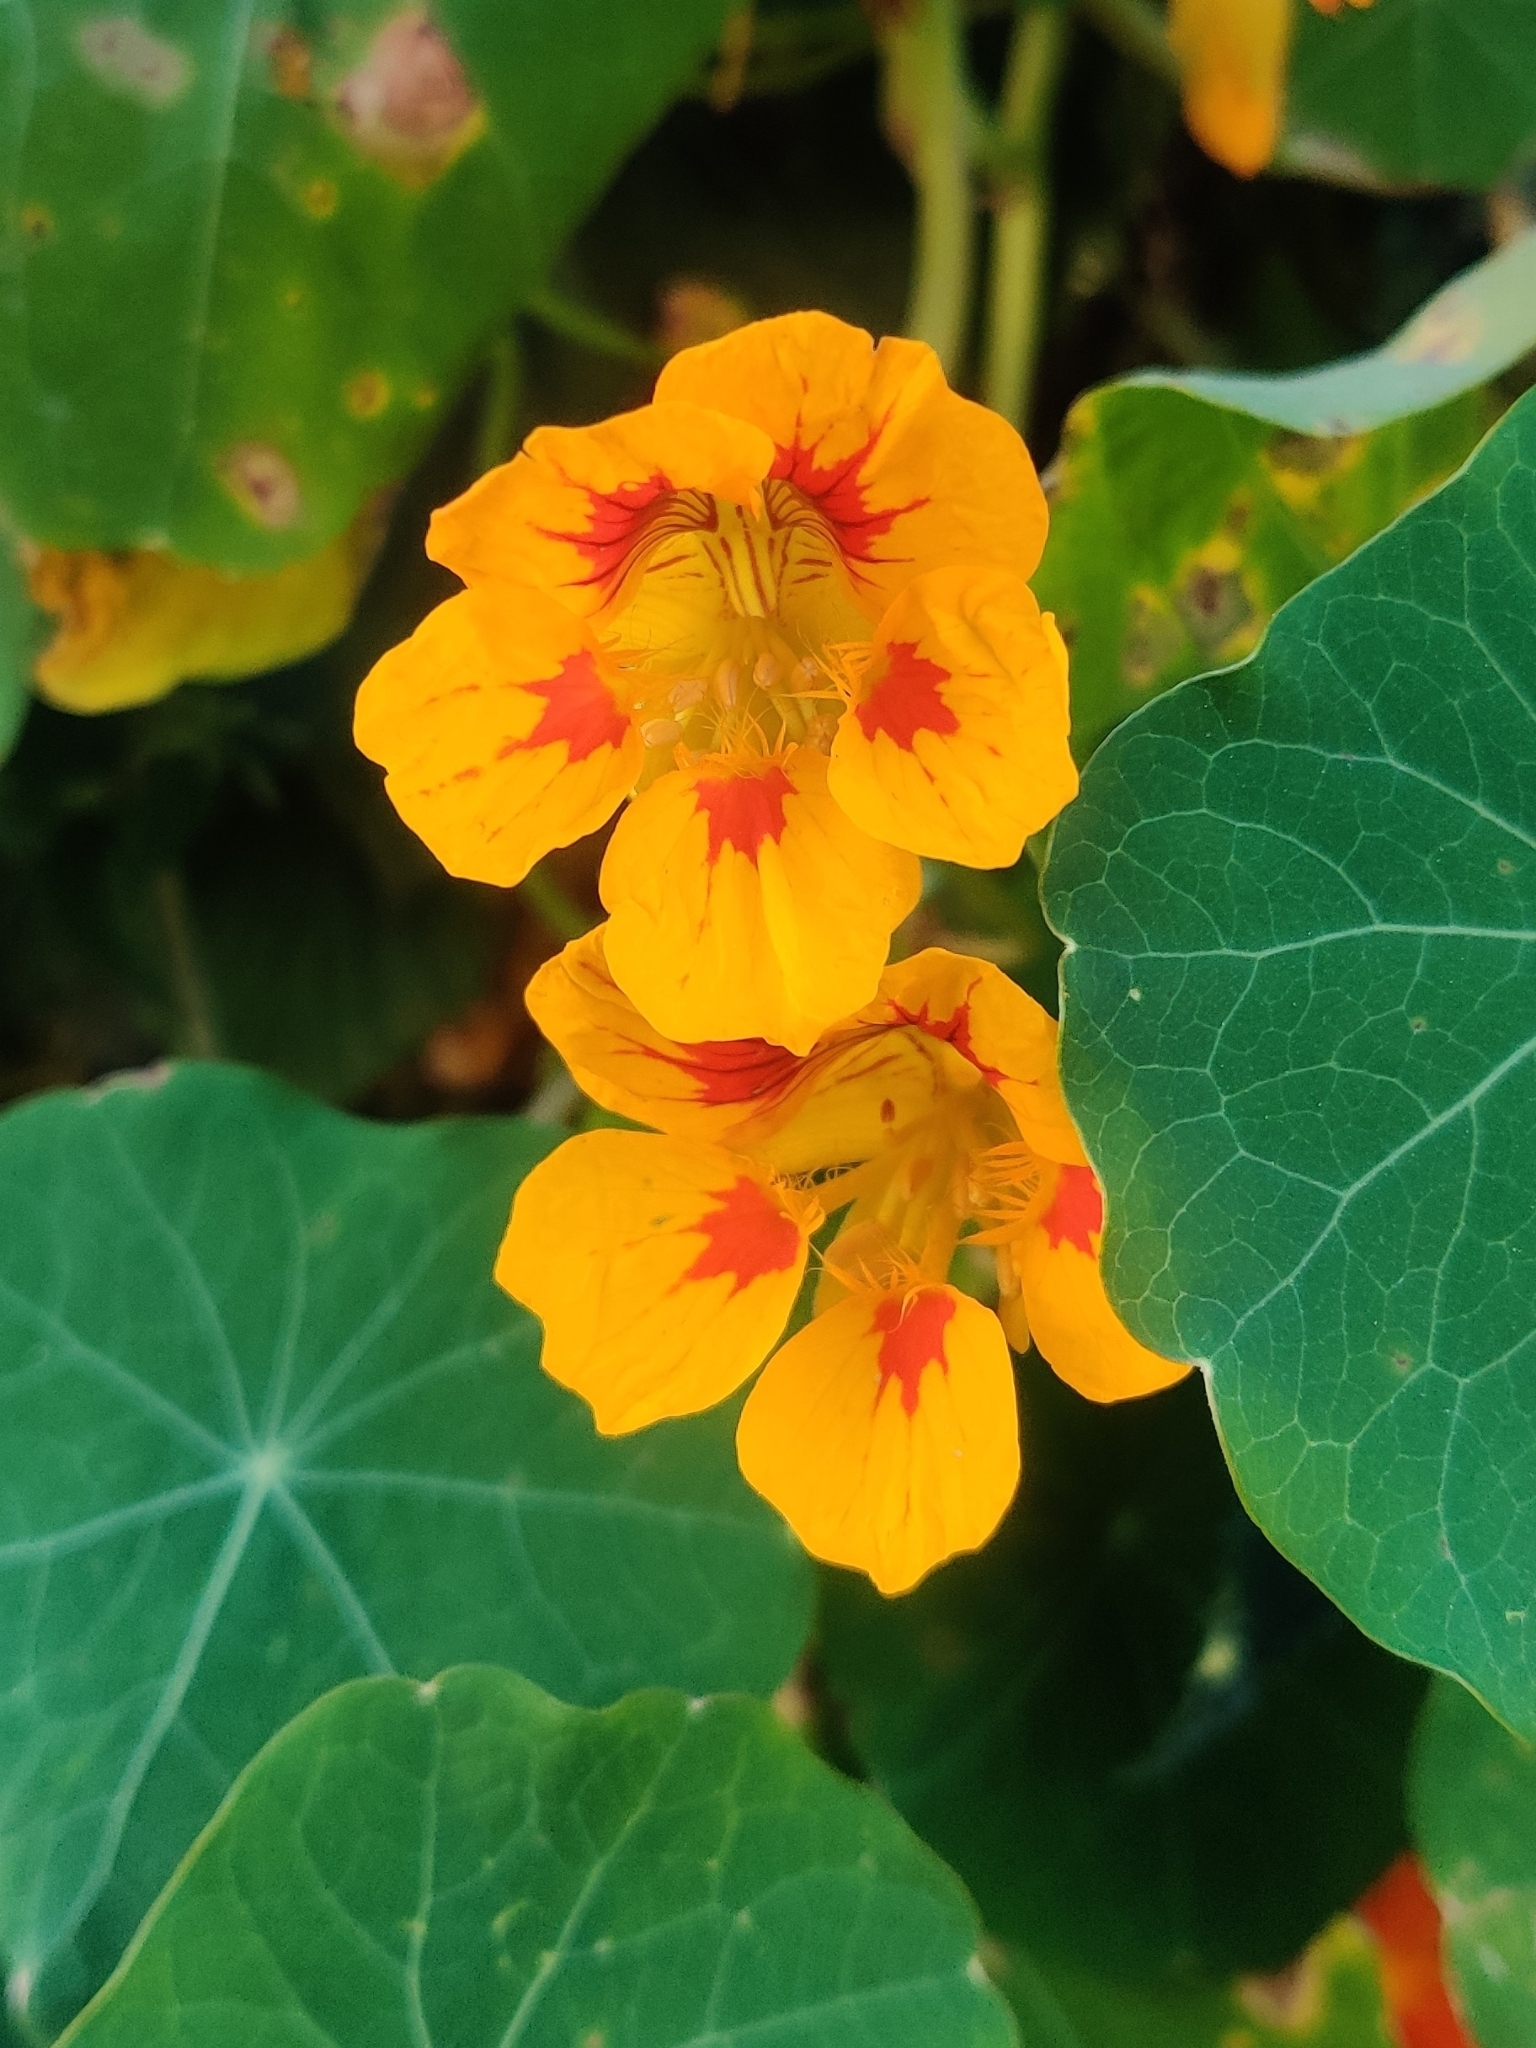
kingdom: Plantae
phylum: Tracheophyta
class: Magnoliopsida
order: Brassicales
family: Tropaeolaceae
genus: Tropaeolum
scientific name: Tropaeolum majus
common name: Nasturtium
